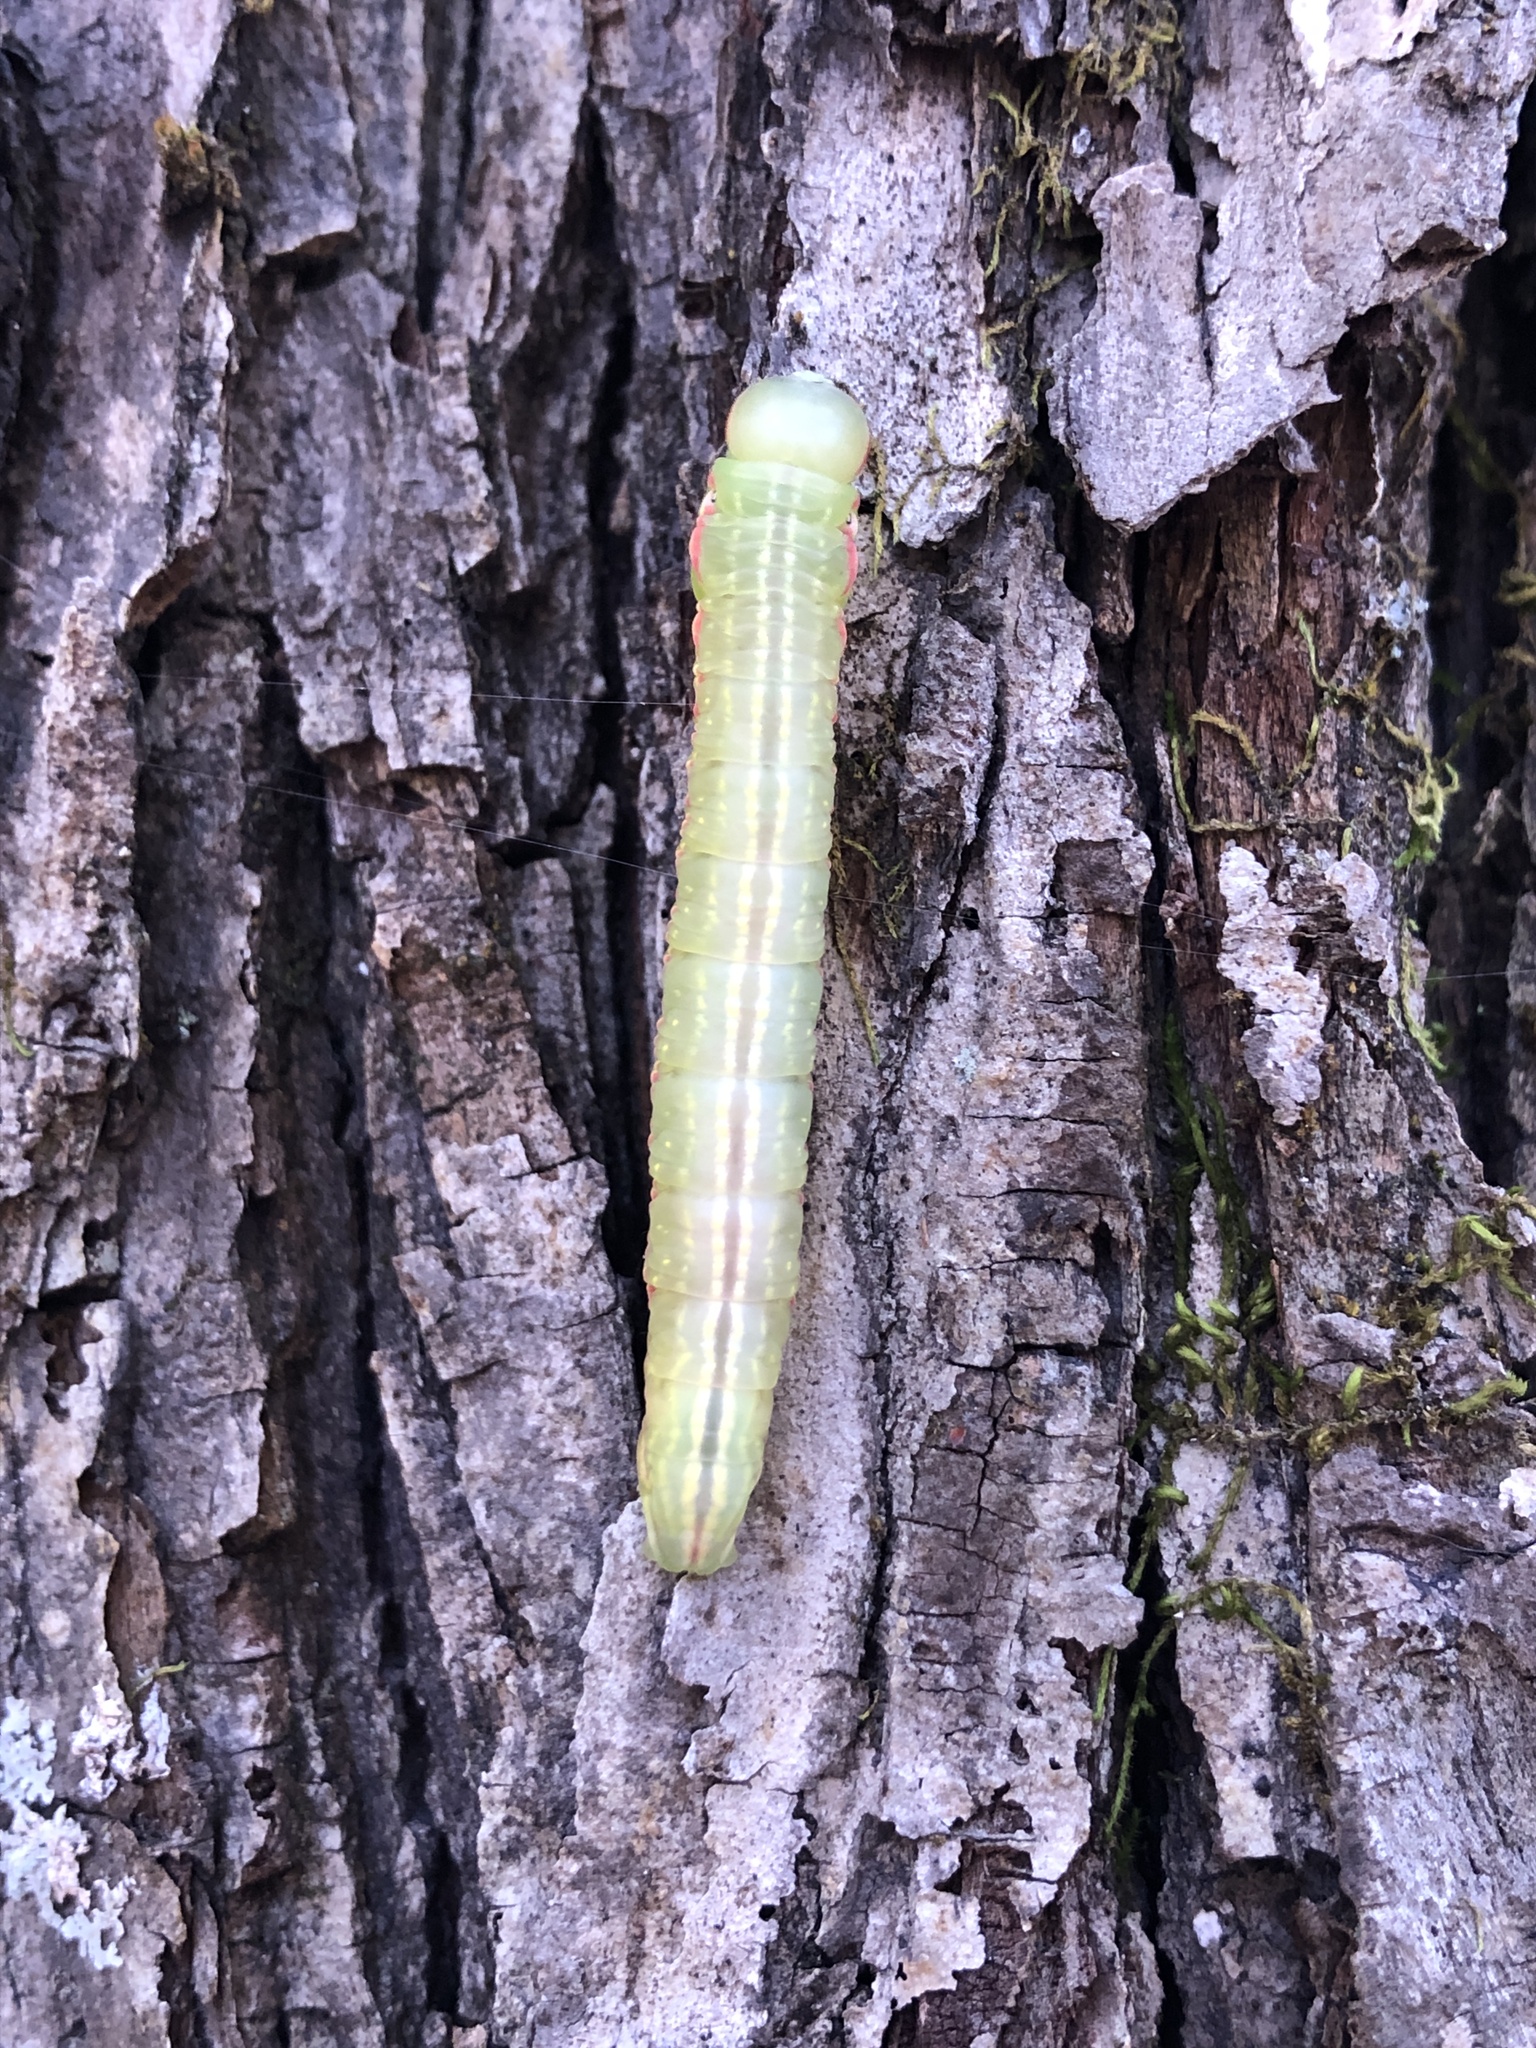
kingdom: Animalia
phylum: Arthropoda
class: Insecta
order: Lepidoptera
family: Notodontidae
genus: Peridea
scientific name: Peridea angulosa
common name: Angulose prominent
